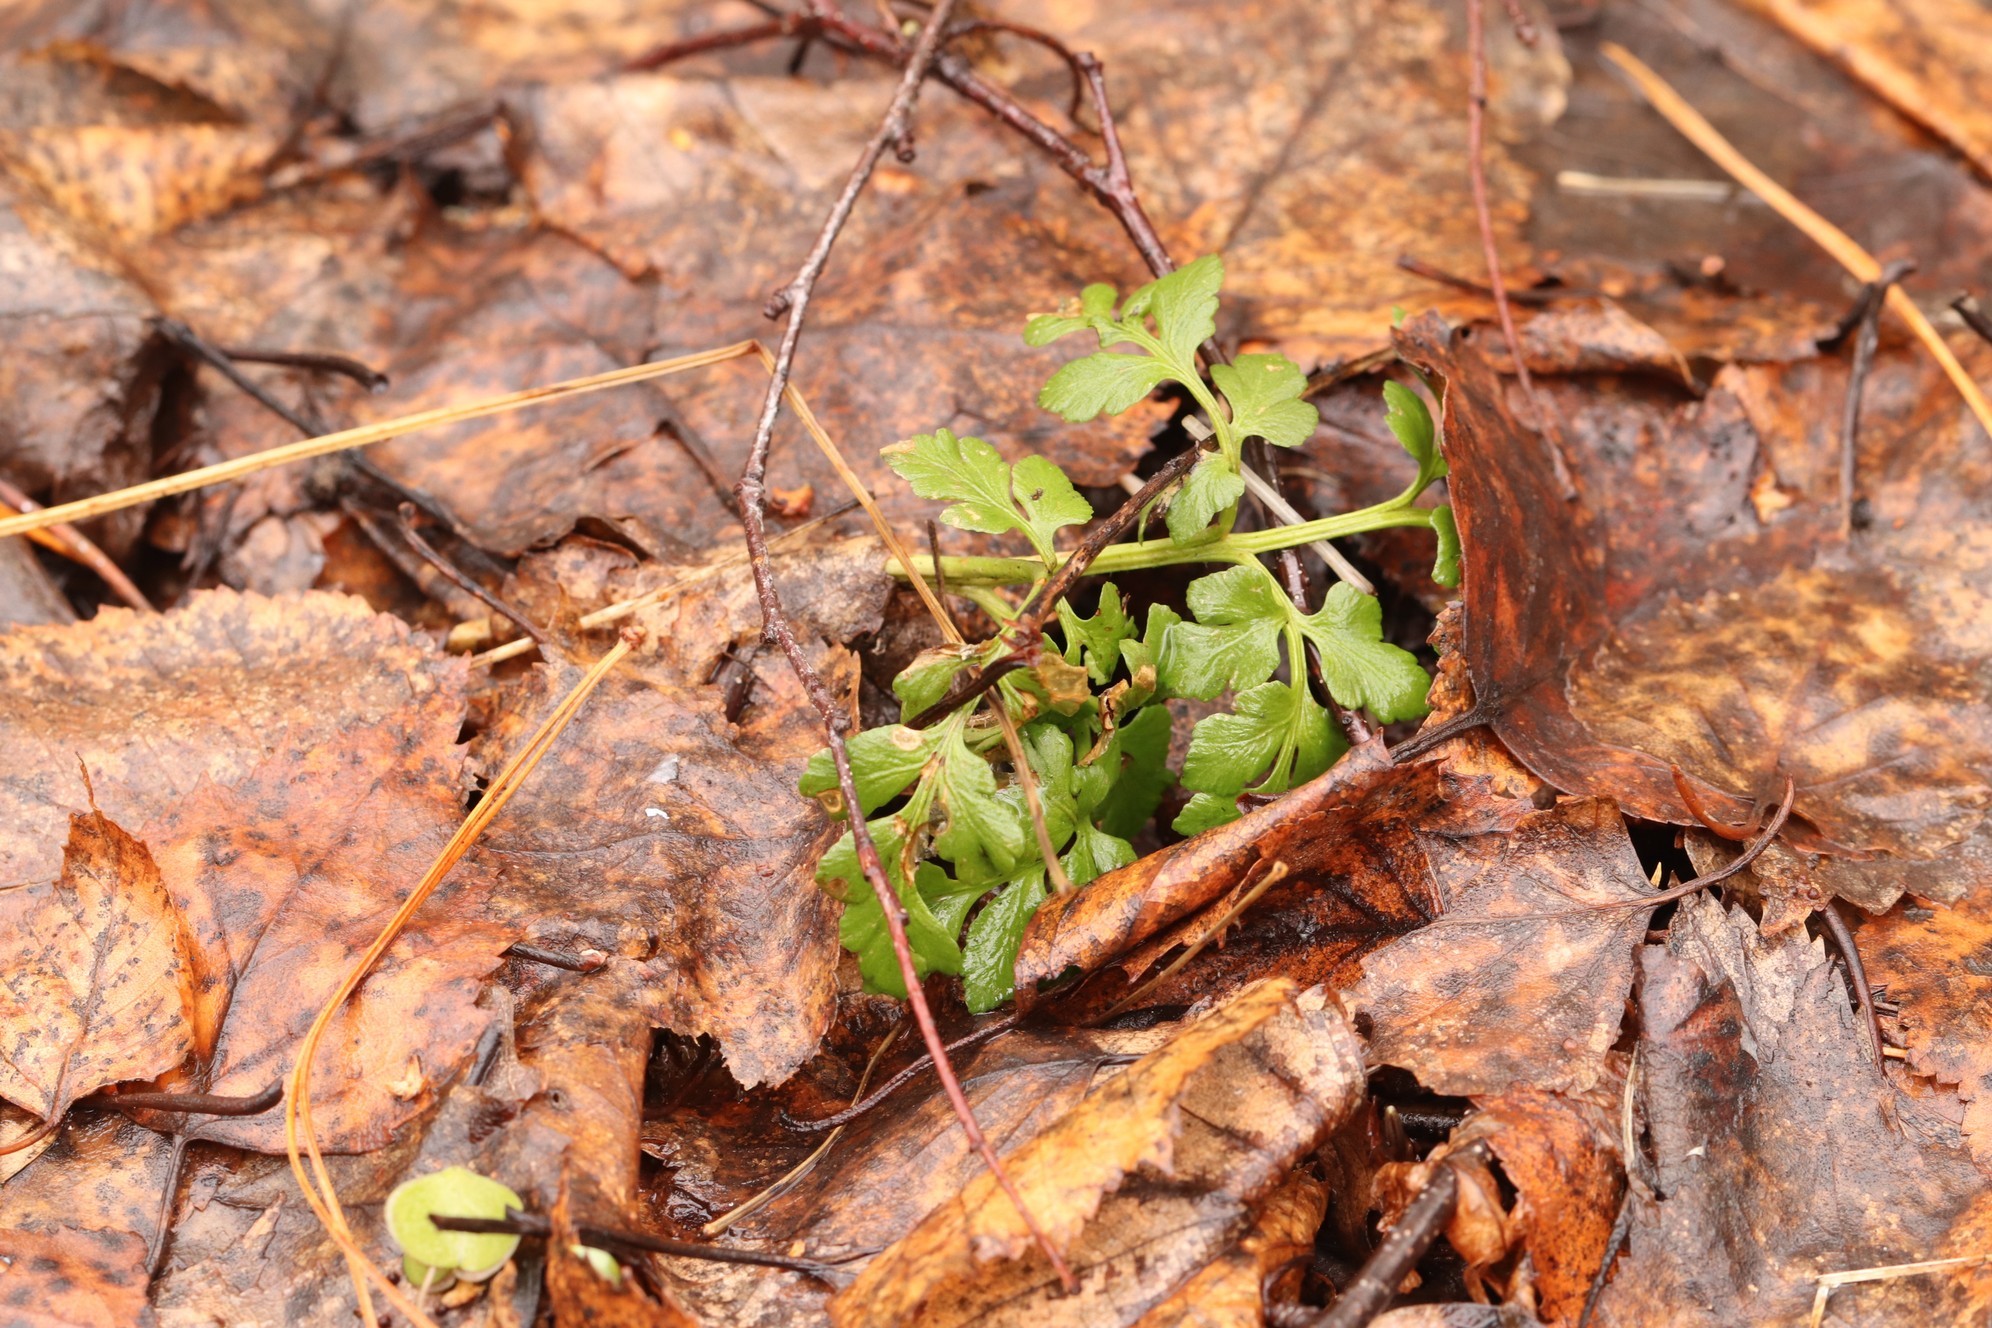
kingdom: Plantae
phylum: Tracheophyta
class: Polypodiopsida
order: Ophioglossales
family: Ophioglossaceae
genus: Sceptridium
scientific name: Sceptridium multifidum
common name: Leathery grape fern
